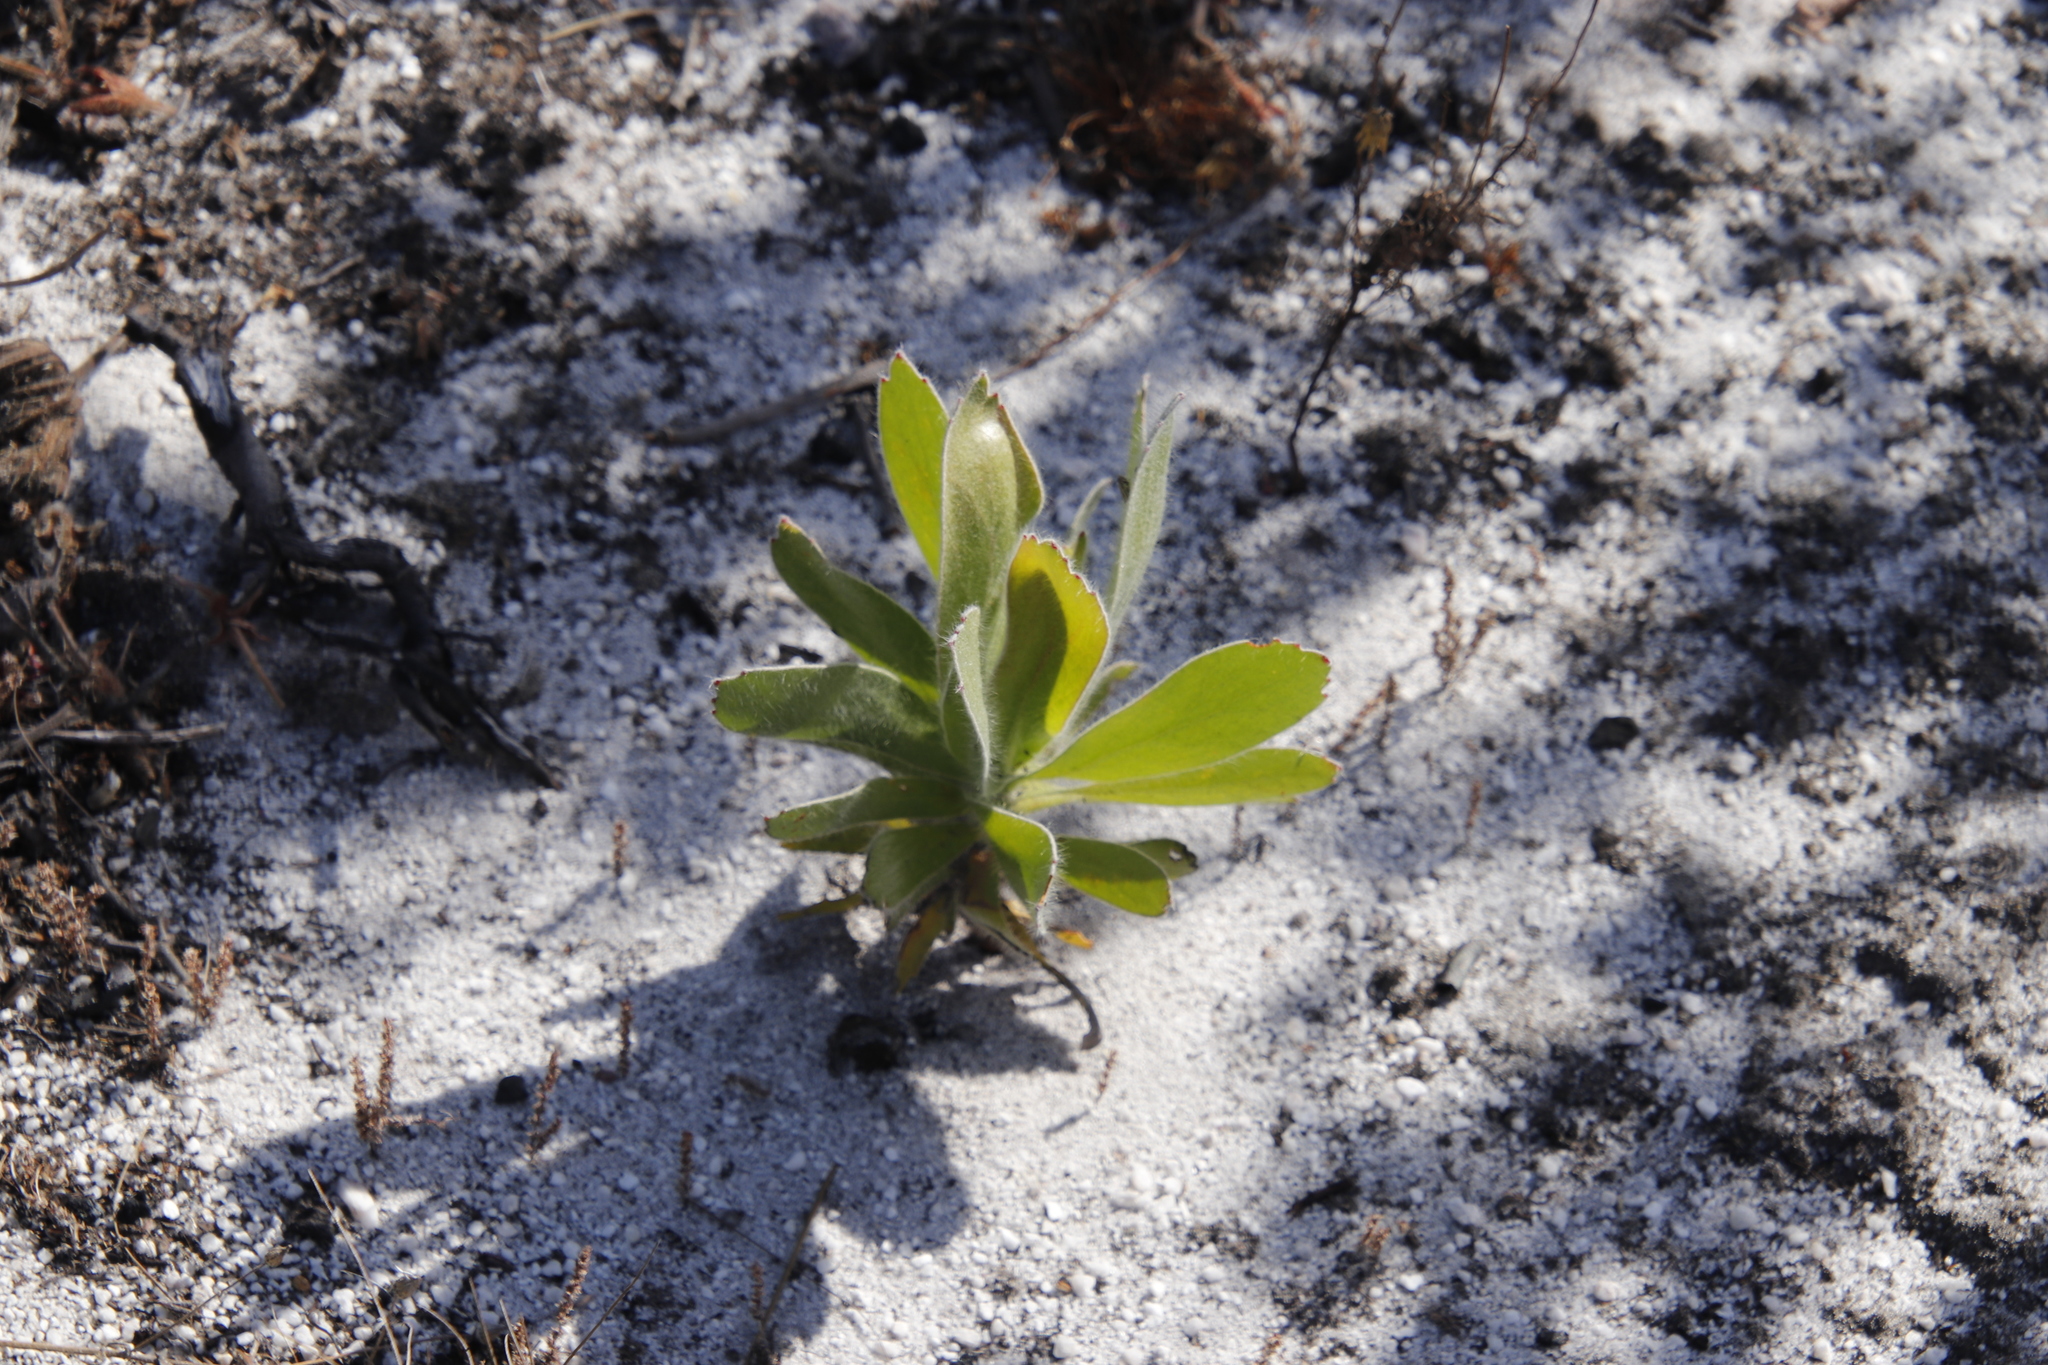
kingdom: Plantae
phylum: Tracheophyta
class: Magnoliopsida
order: Proteales
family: Proteaceae
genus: Leucospermum
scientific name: Leucospermum conocarpodendron
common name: Tree pincushion
